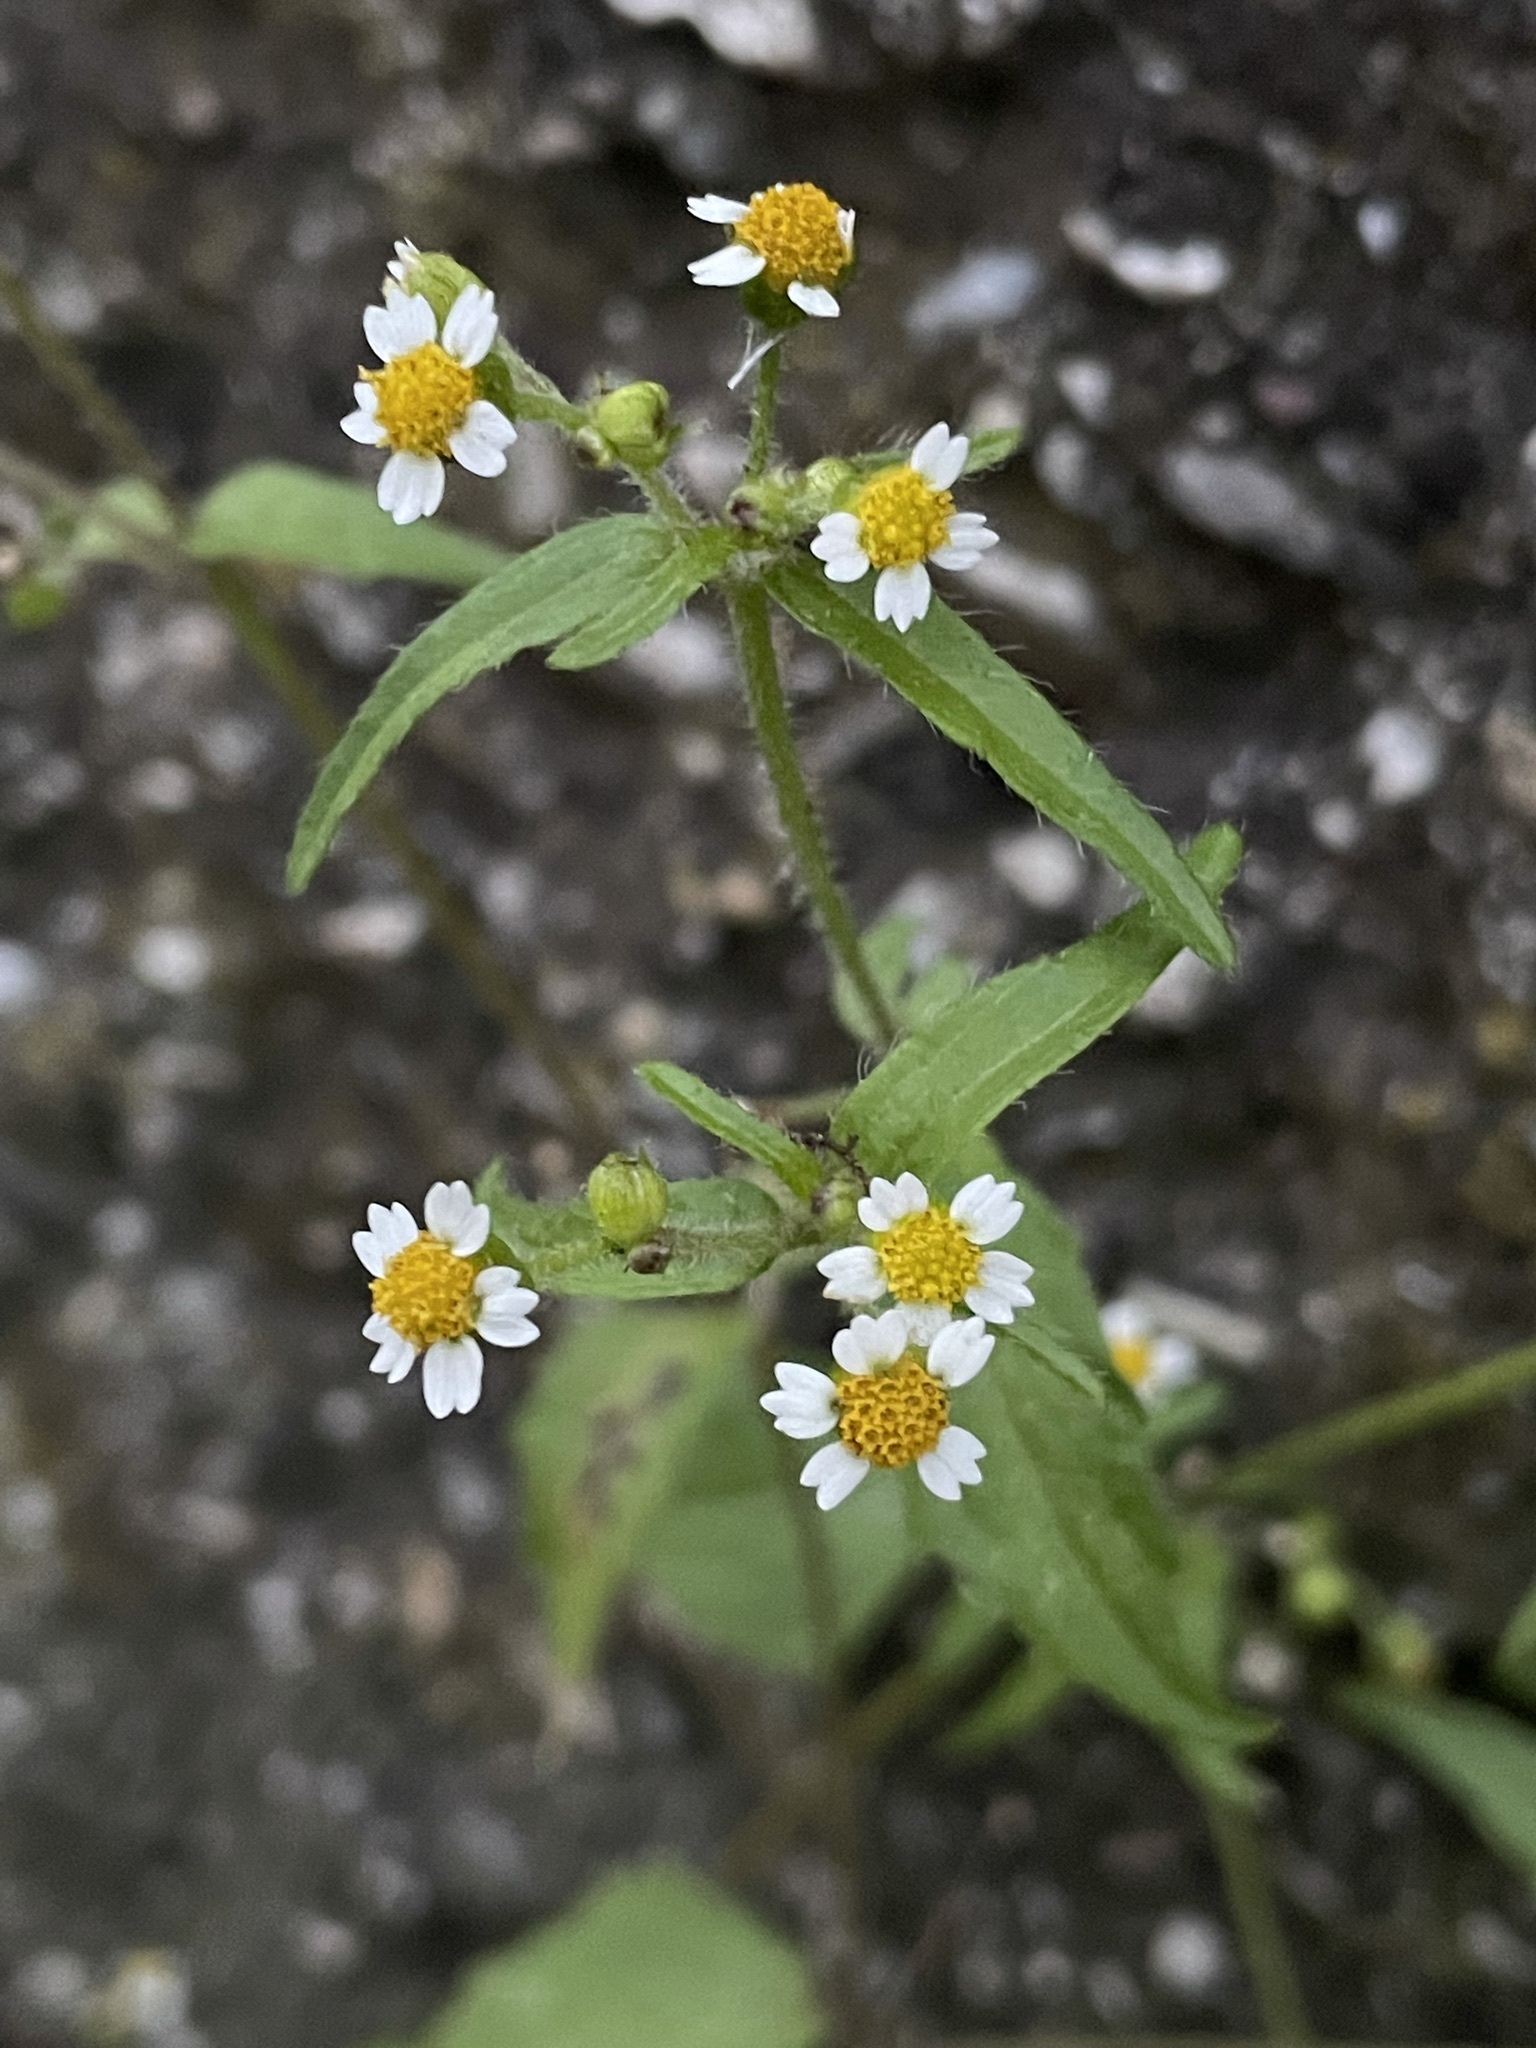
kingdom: Plantae
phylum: Tracheophyta
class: Magnoliopsida
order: Asterales
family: Asteraceae
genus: Galinsoga
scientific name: Galinsoga quadriradiata
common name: Shaggy soldier
